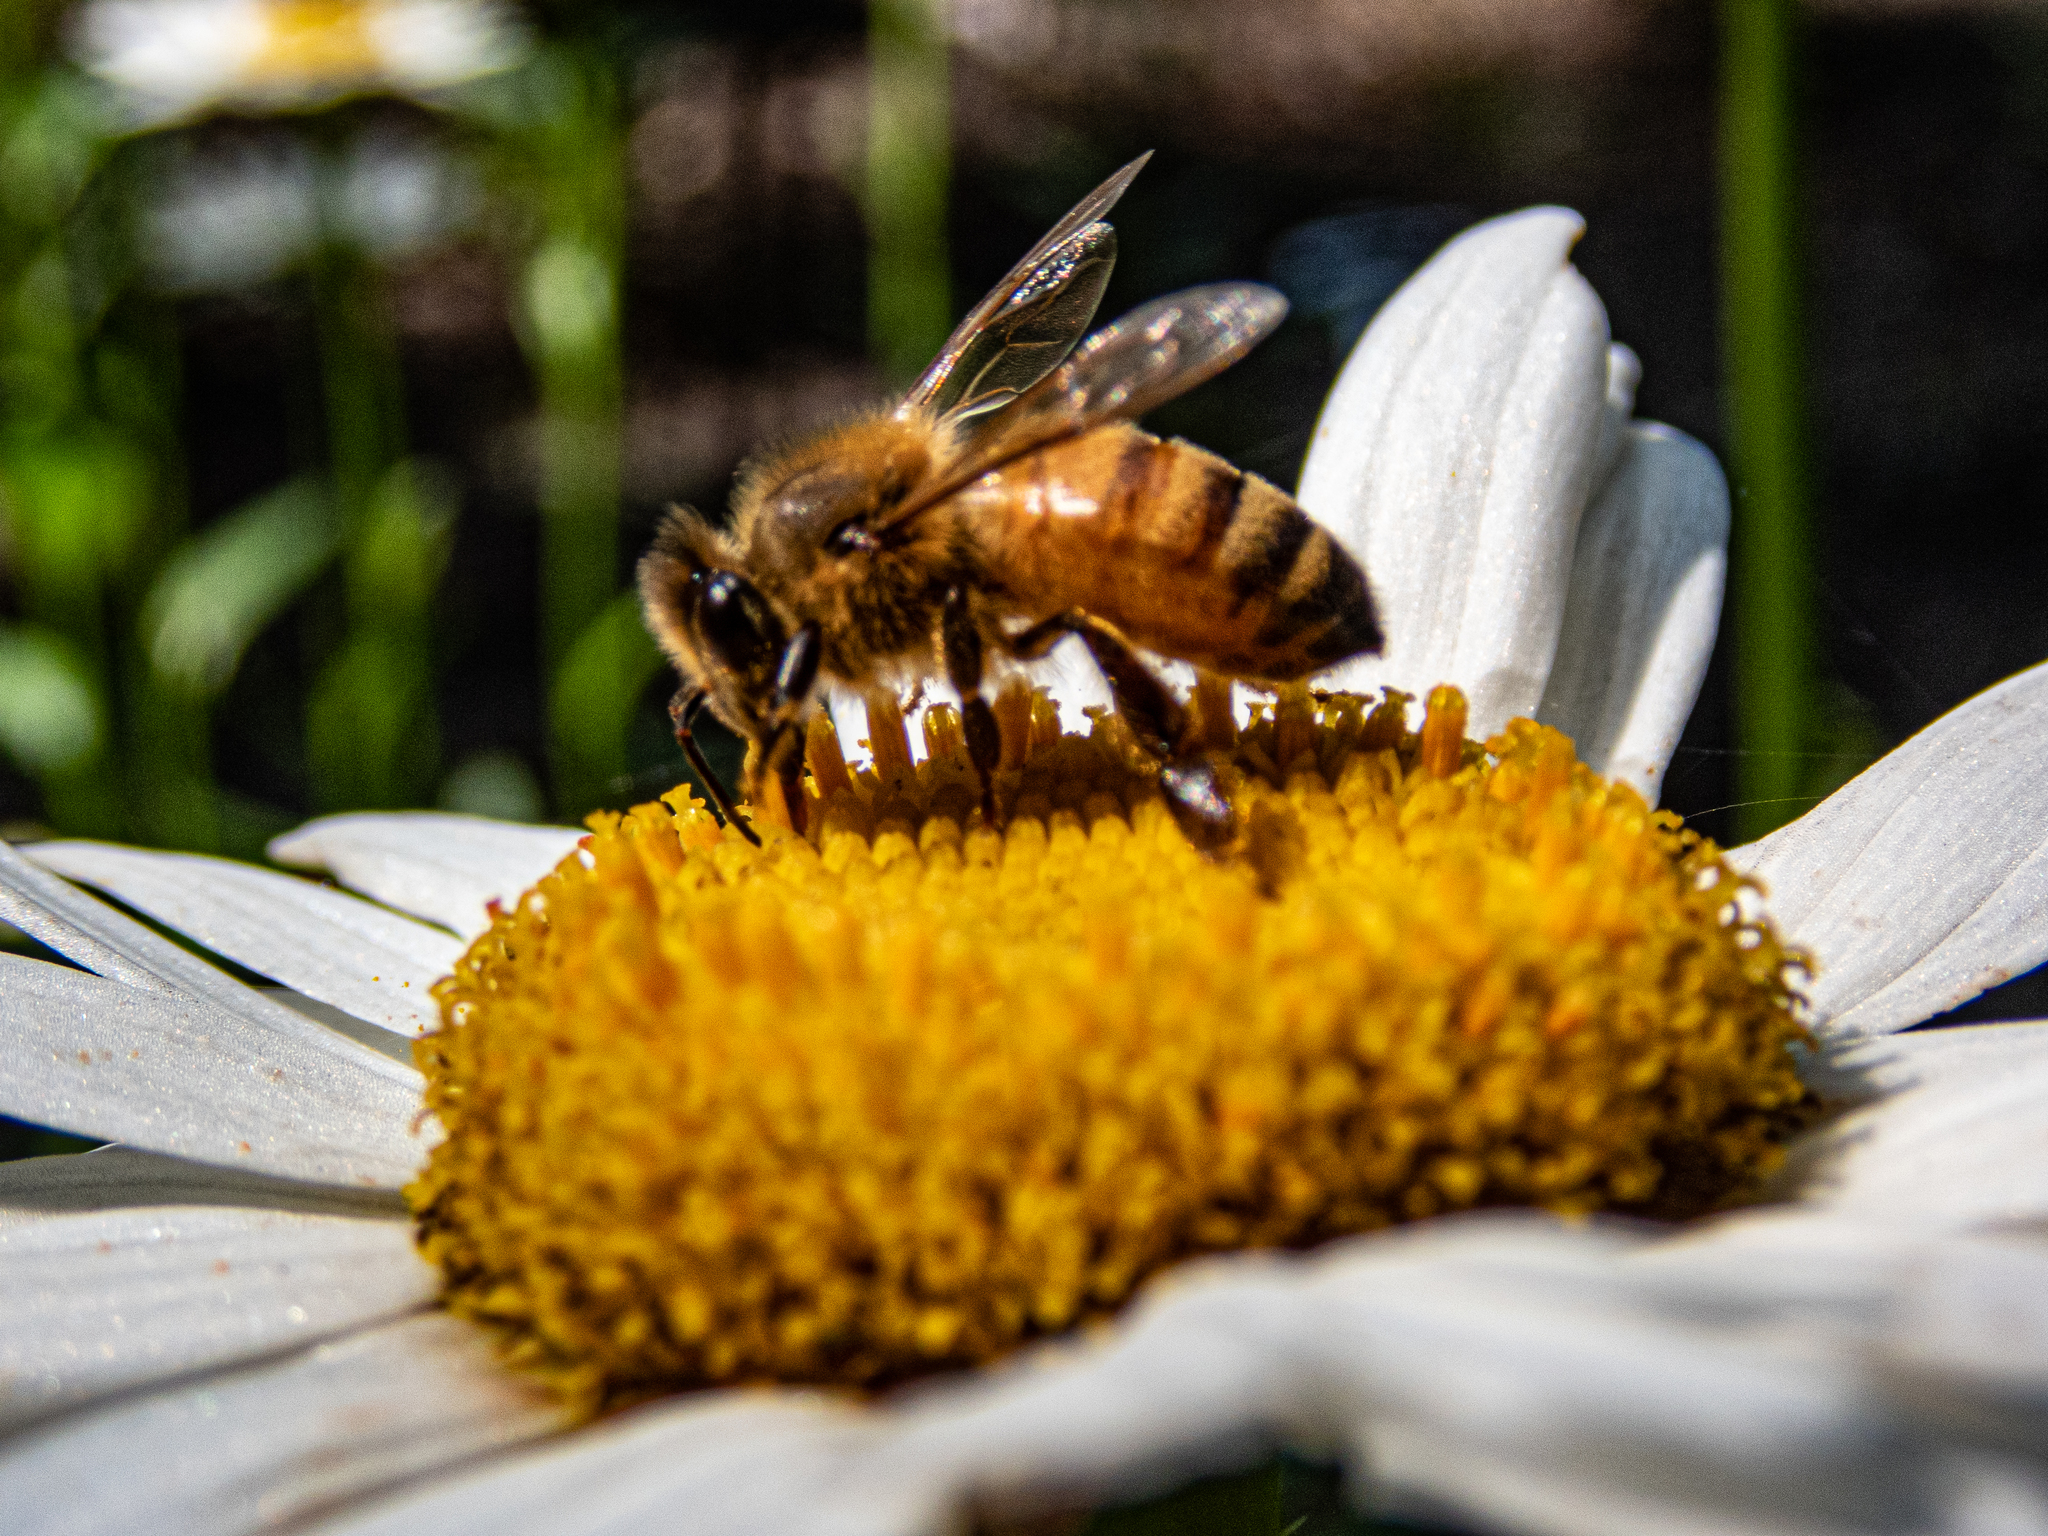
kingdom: Animalia
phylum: Arthropoda
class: Insecta
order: Hymenoptera
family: Apidae
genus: Apis
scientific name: Apis mellifera
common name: Honey bee
